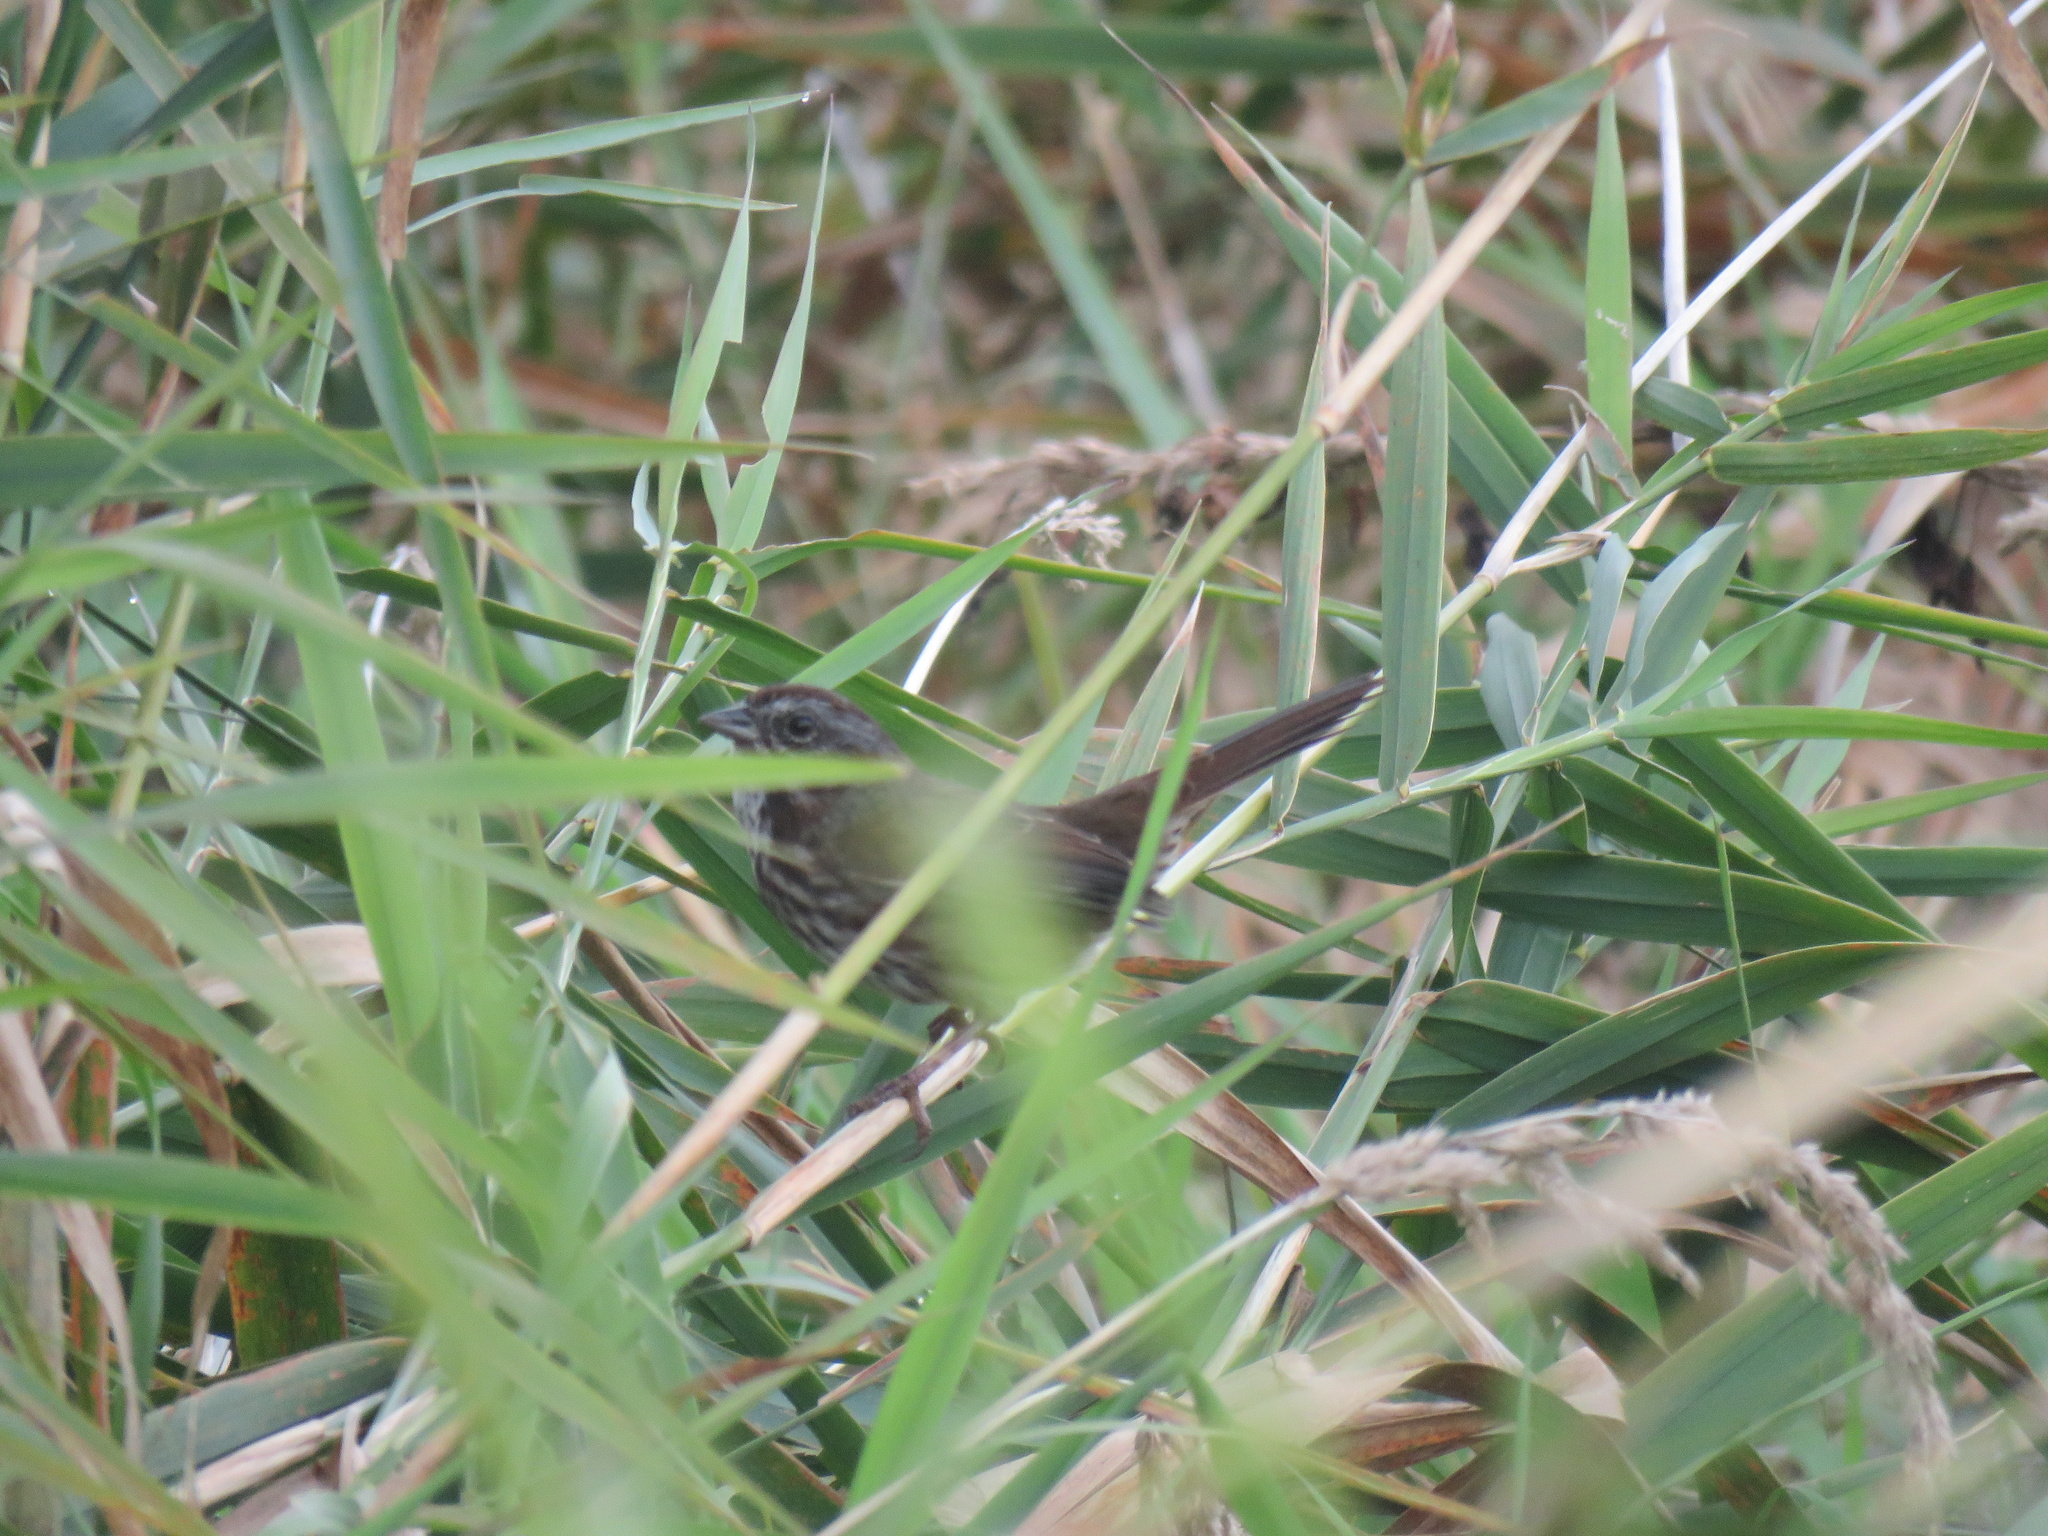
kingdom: Animalia
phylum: Chordata
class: Aves
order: Passeriformes
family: Passerellidae
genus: Melospiza
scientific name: Melospiza melodia
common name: Song sparrow
